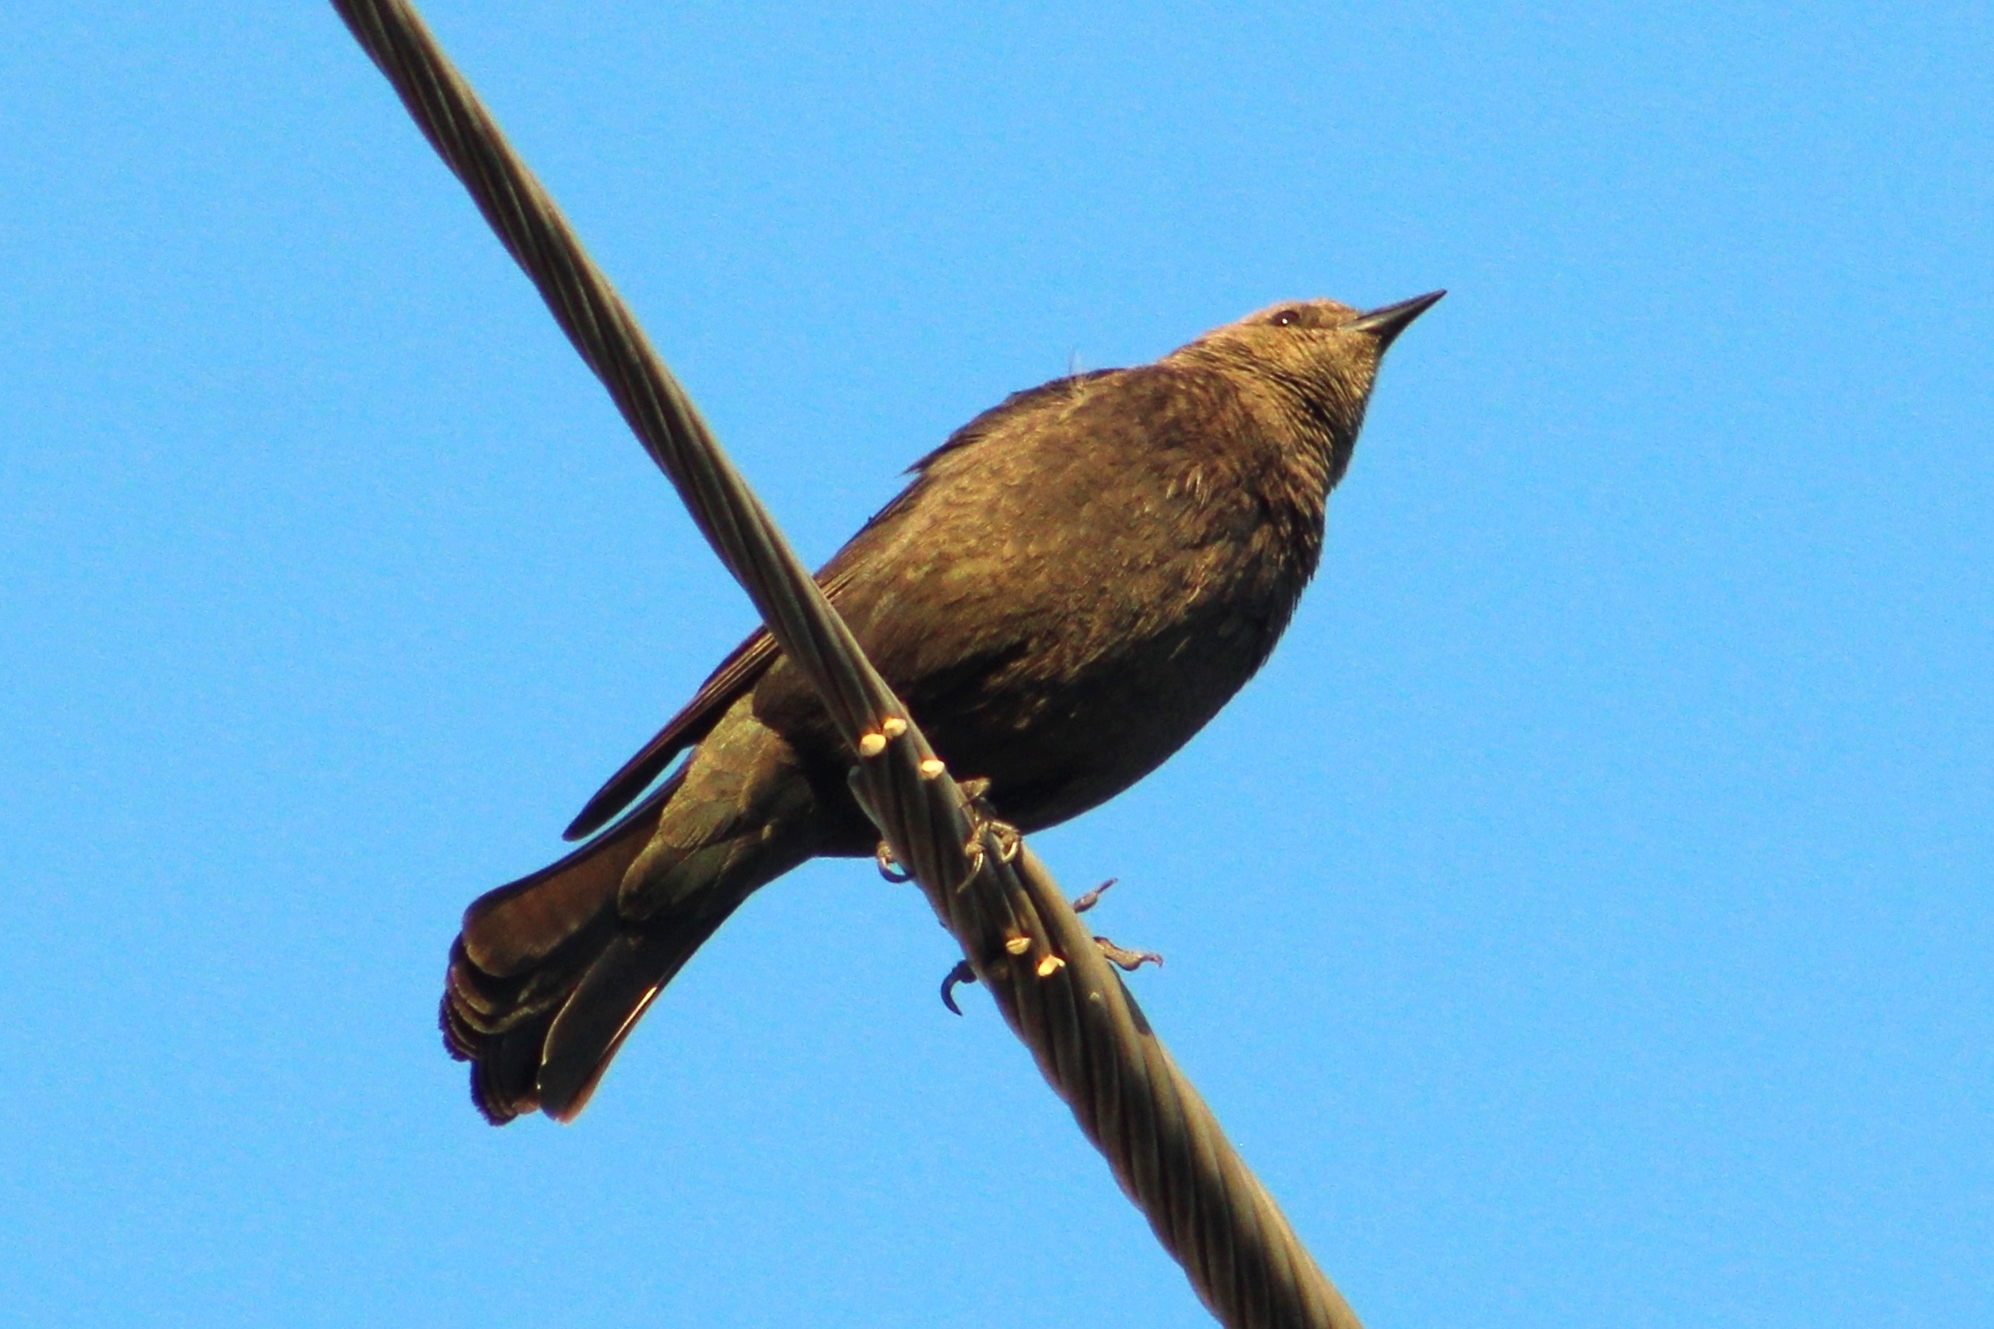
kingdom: Animalia
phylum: Chordata
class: Aves
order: Passeriformes
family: Icteridae
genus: Euphagus
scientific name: Euphagus cyanocephalus
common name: Brewer's blackbird
